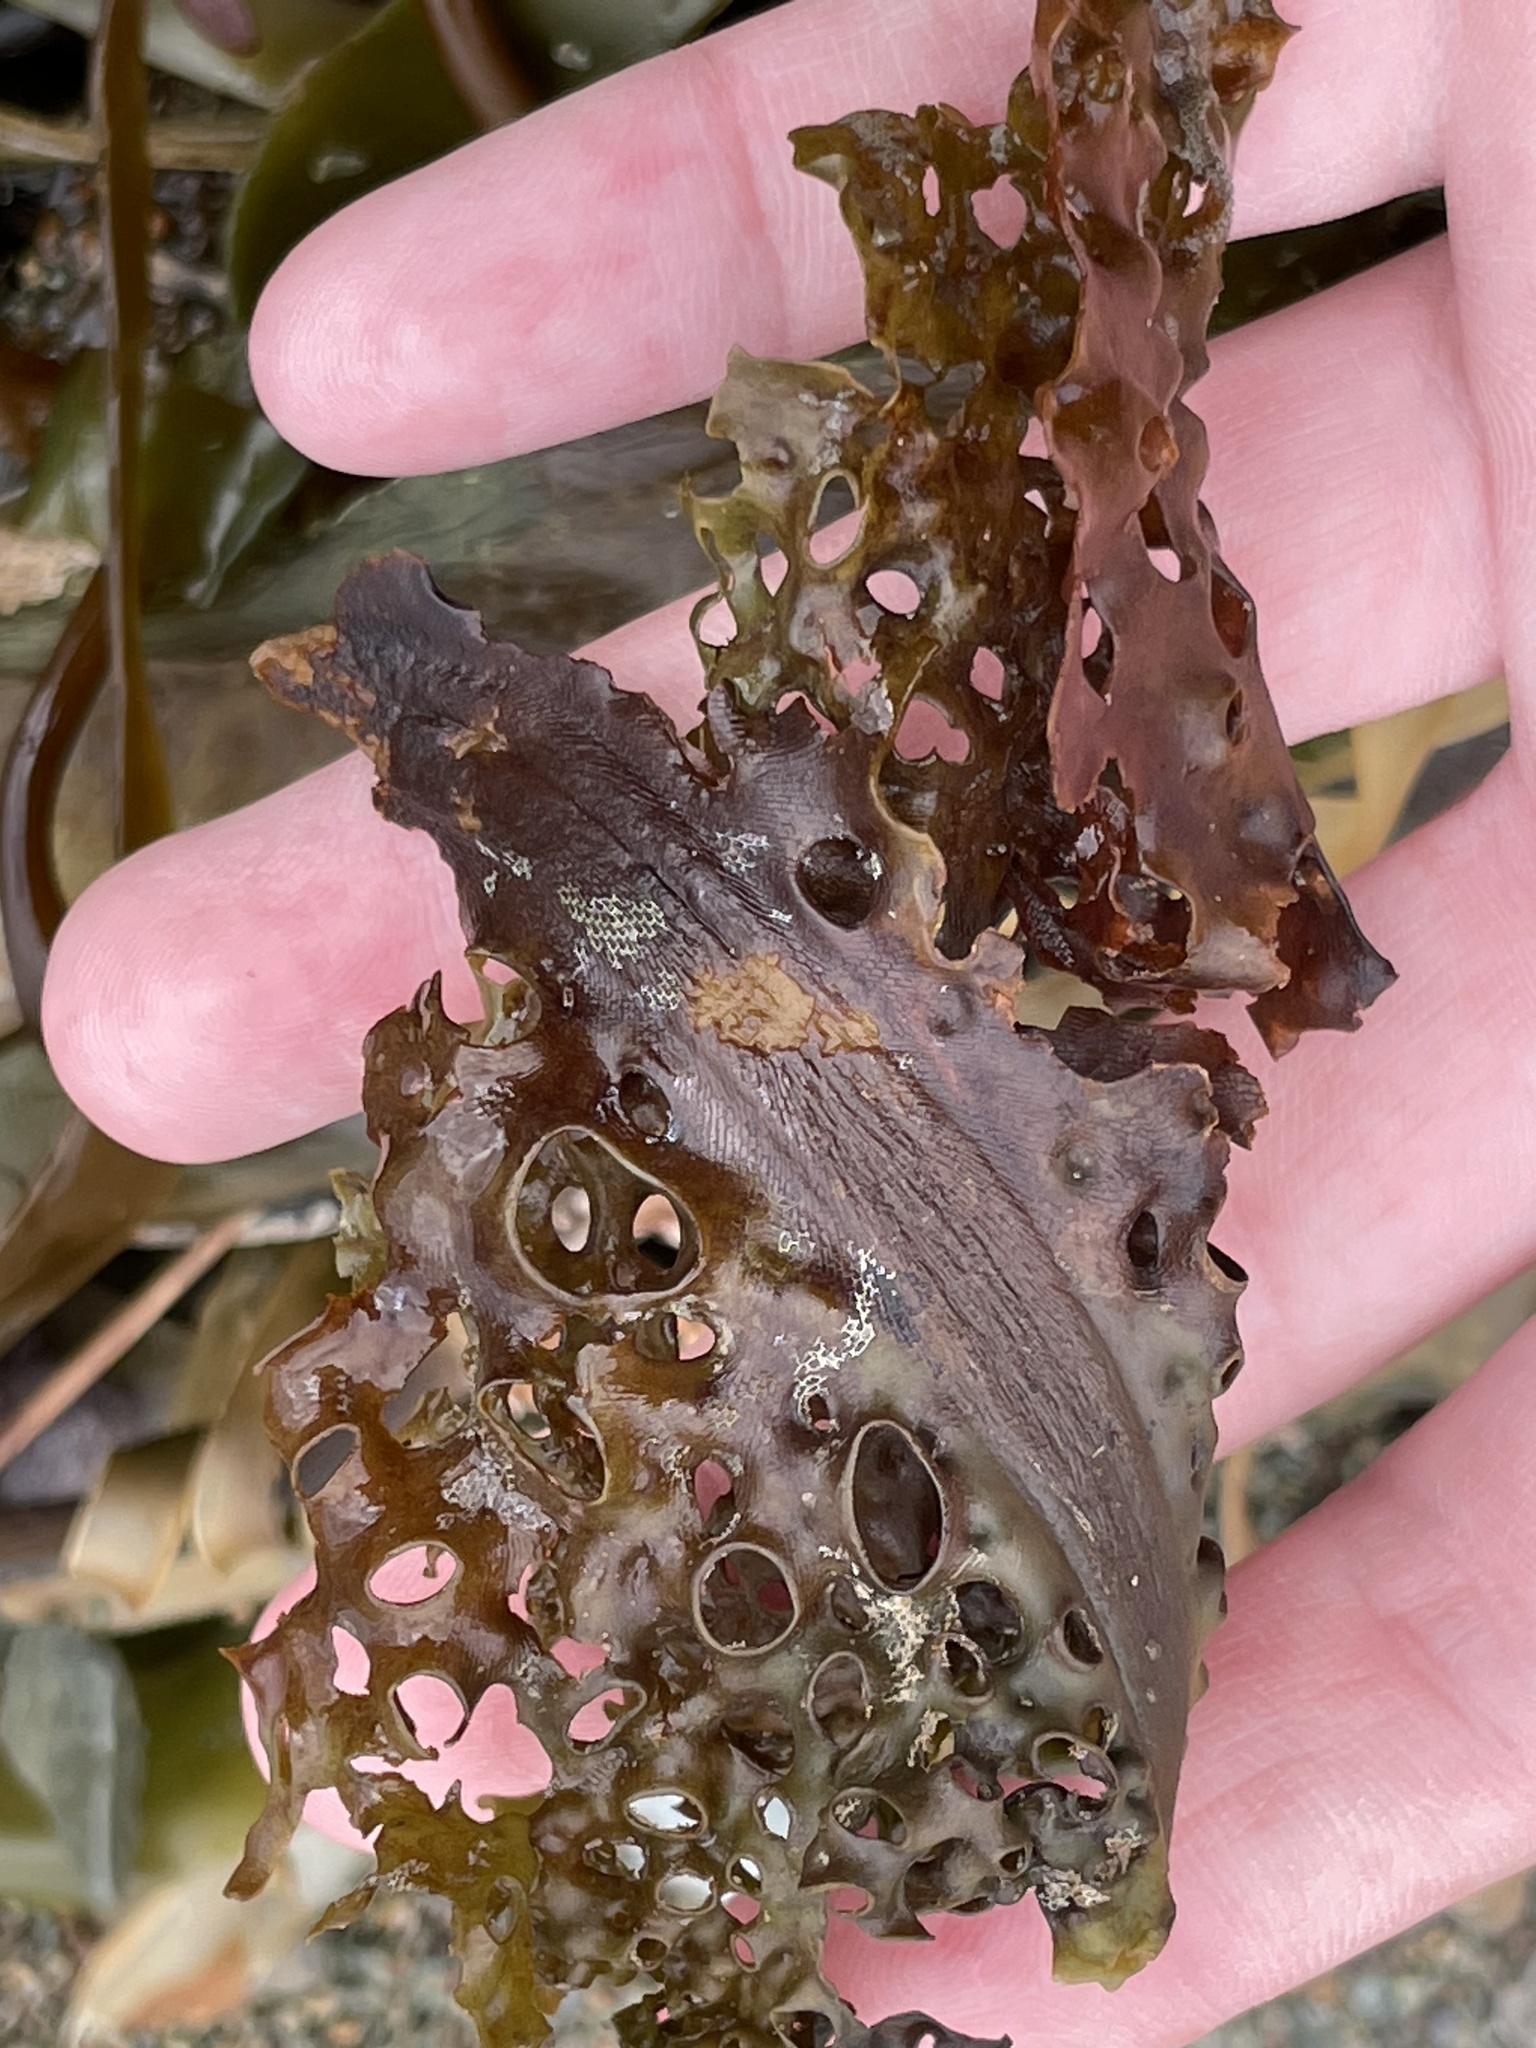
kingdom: Chromista
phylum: Ochrophyta
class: Phaeophyceae
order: Laminariales
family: Costariaceae
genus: Agarum
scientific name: Agarum clathratum
